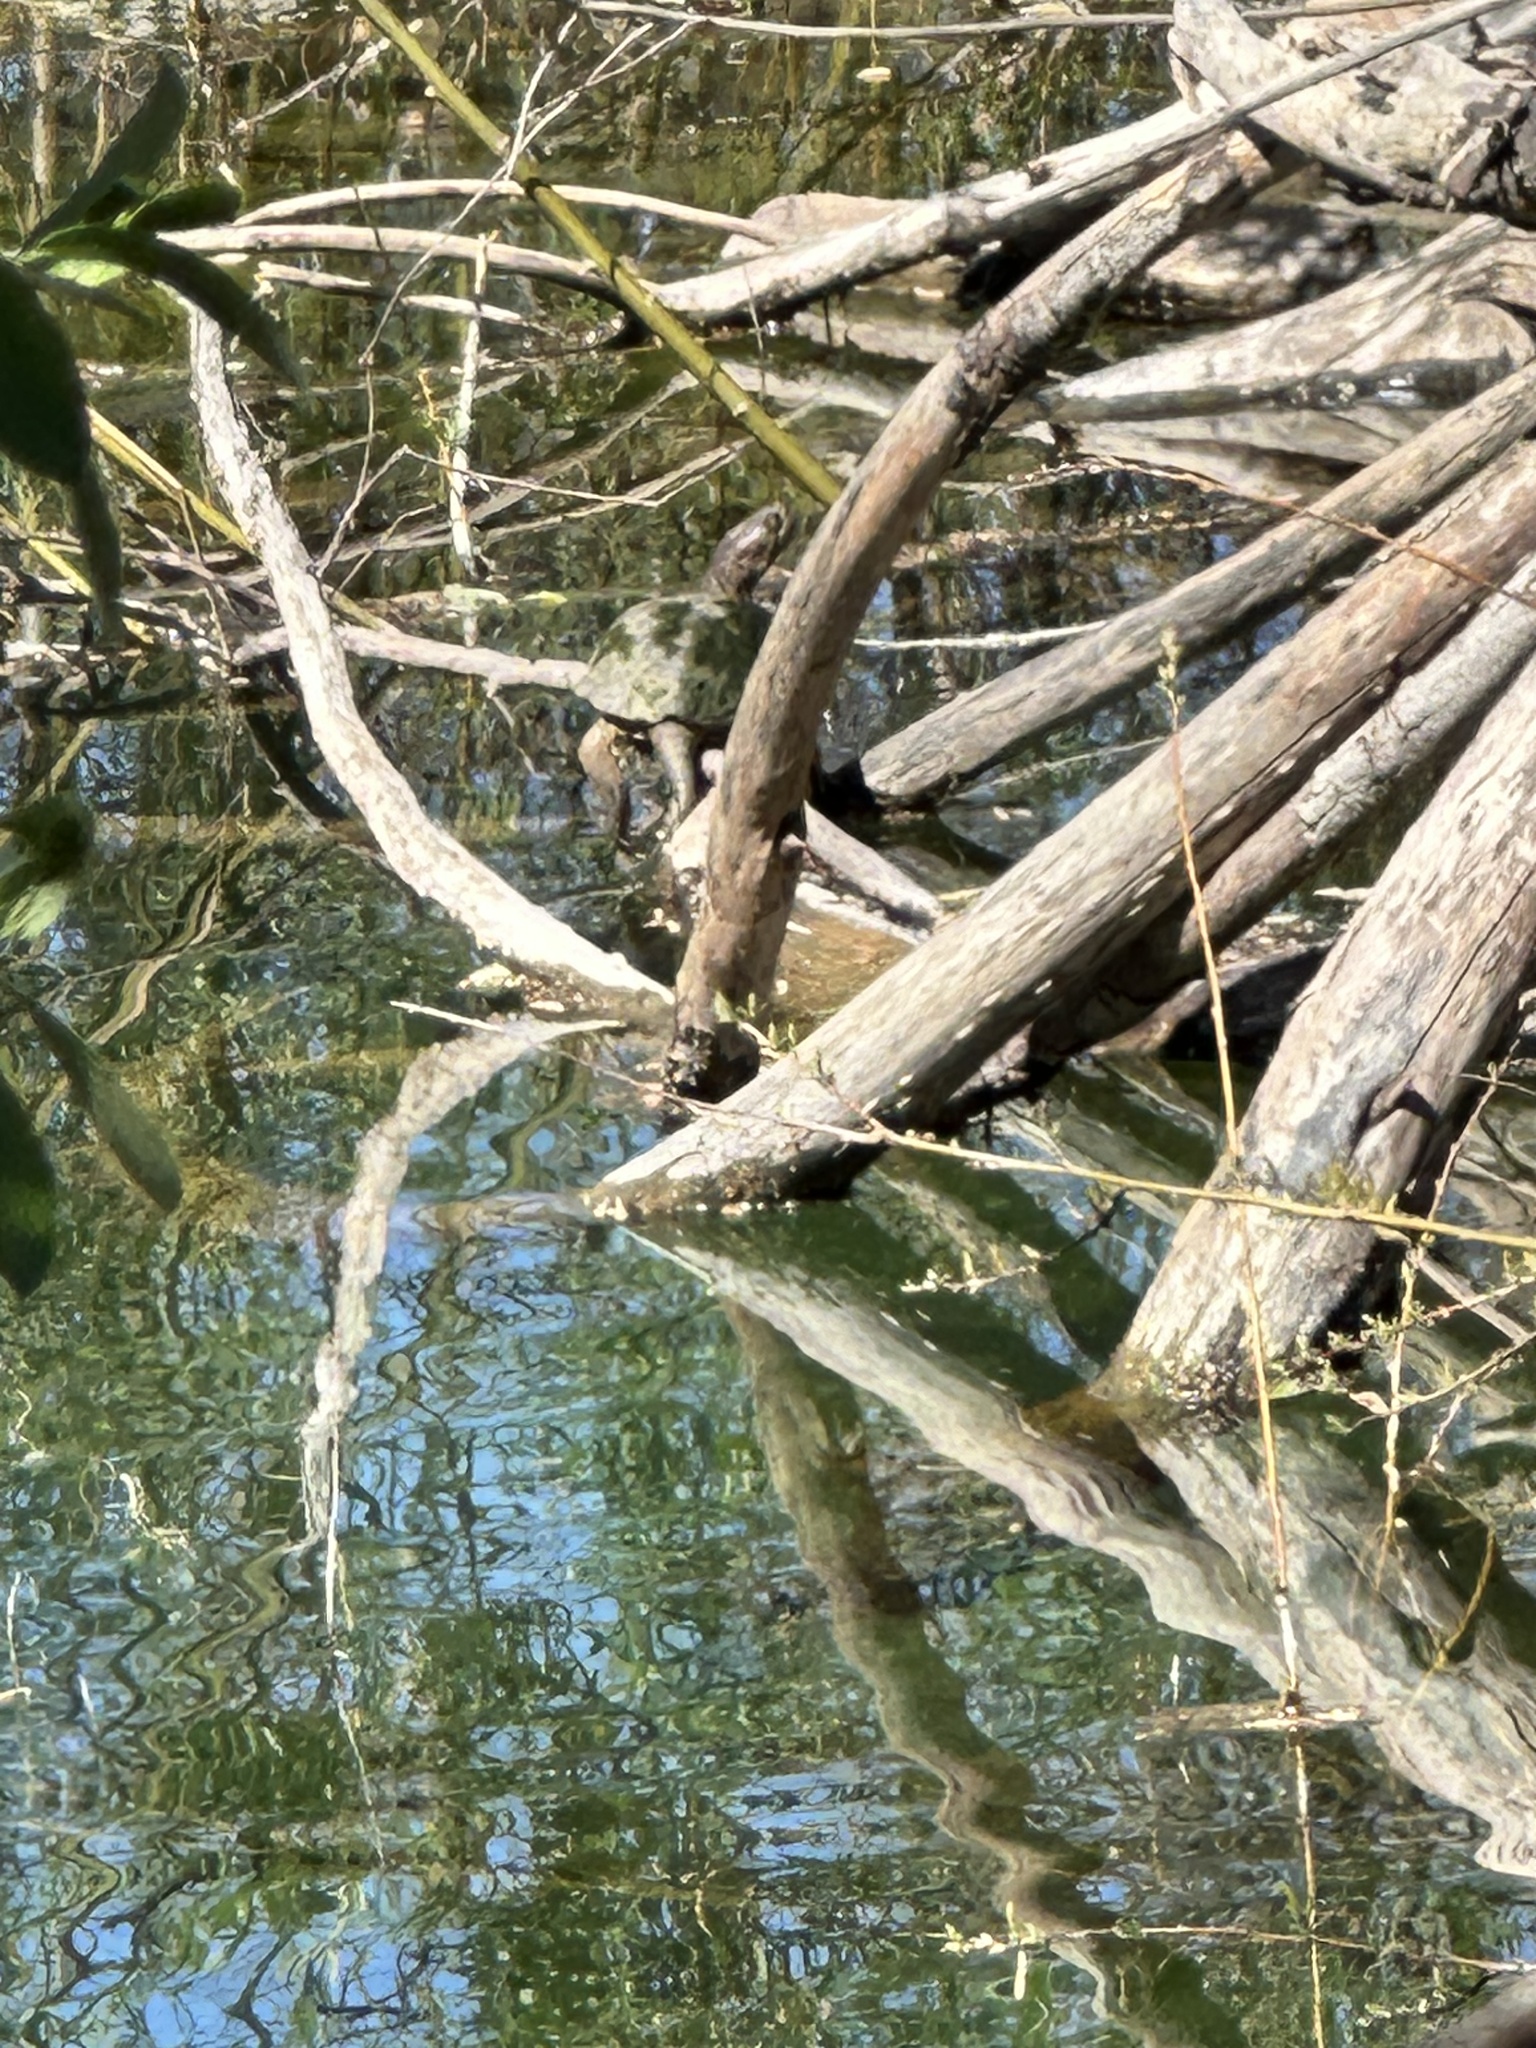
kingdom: Animalia
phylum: Chordata
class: Testudines
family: Emydidae
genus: Actinemys
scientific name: Actinemys marmorata
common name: Western pond turtle
